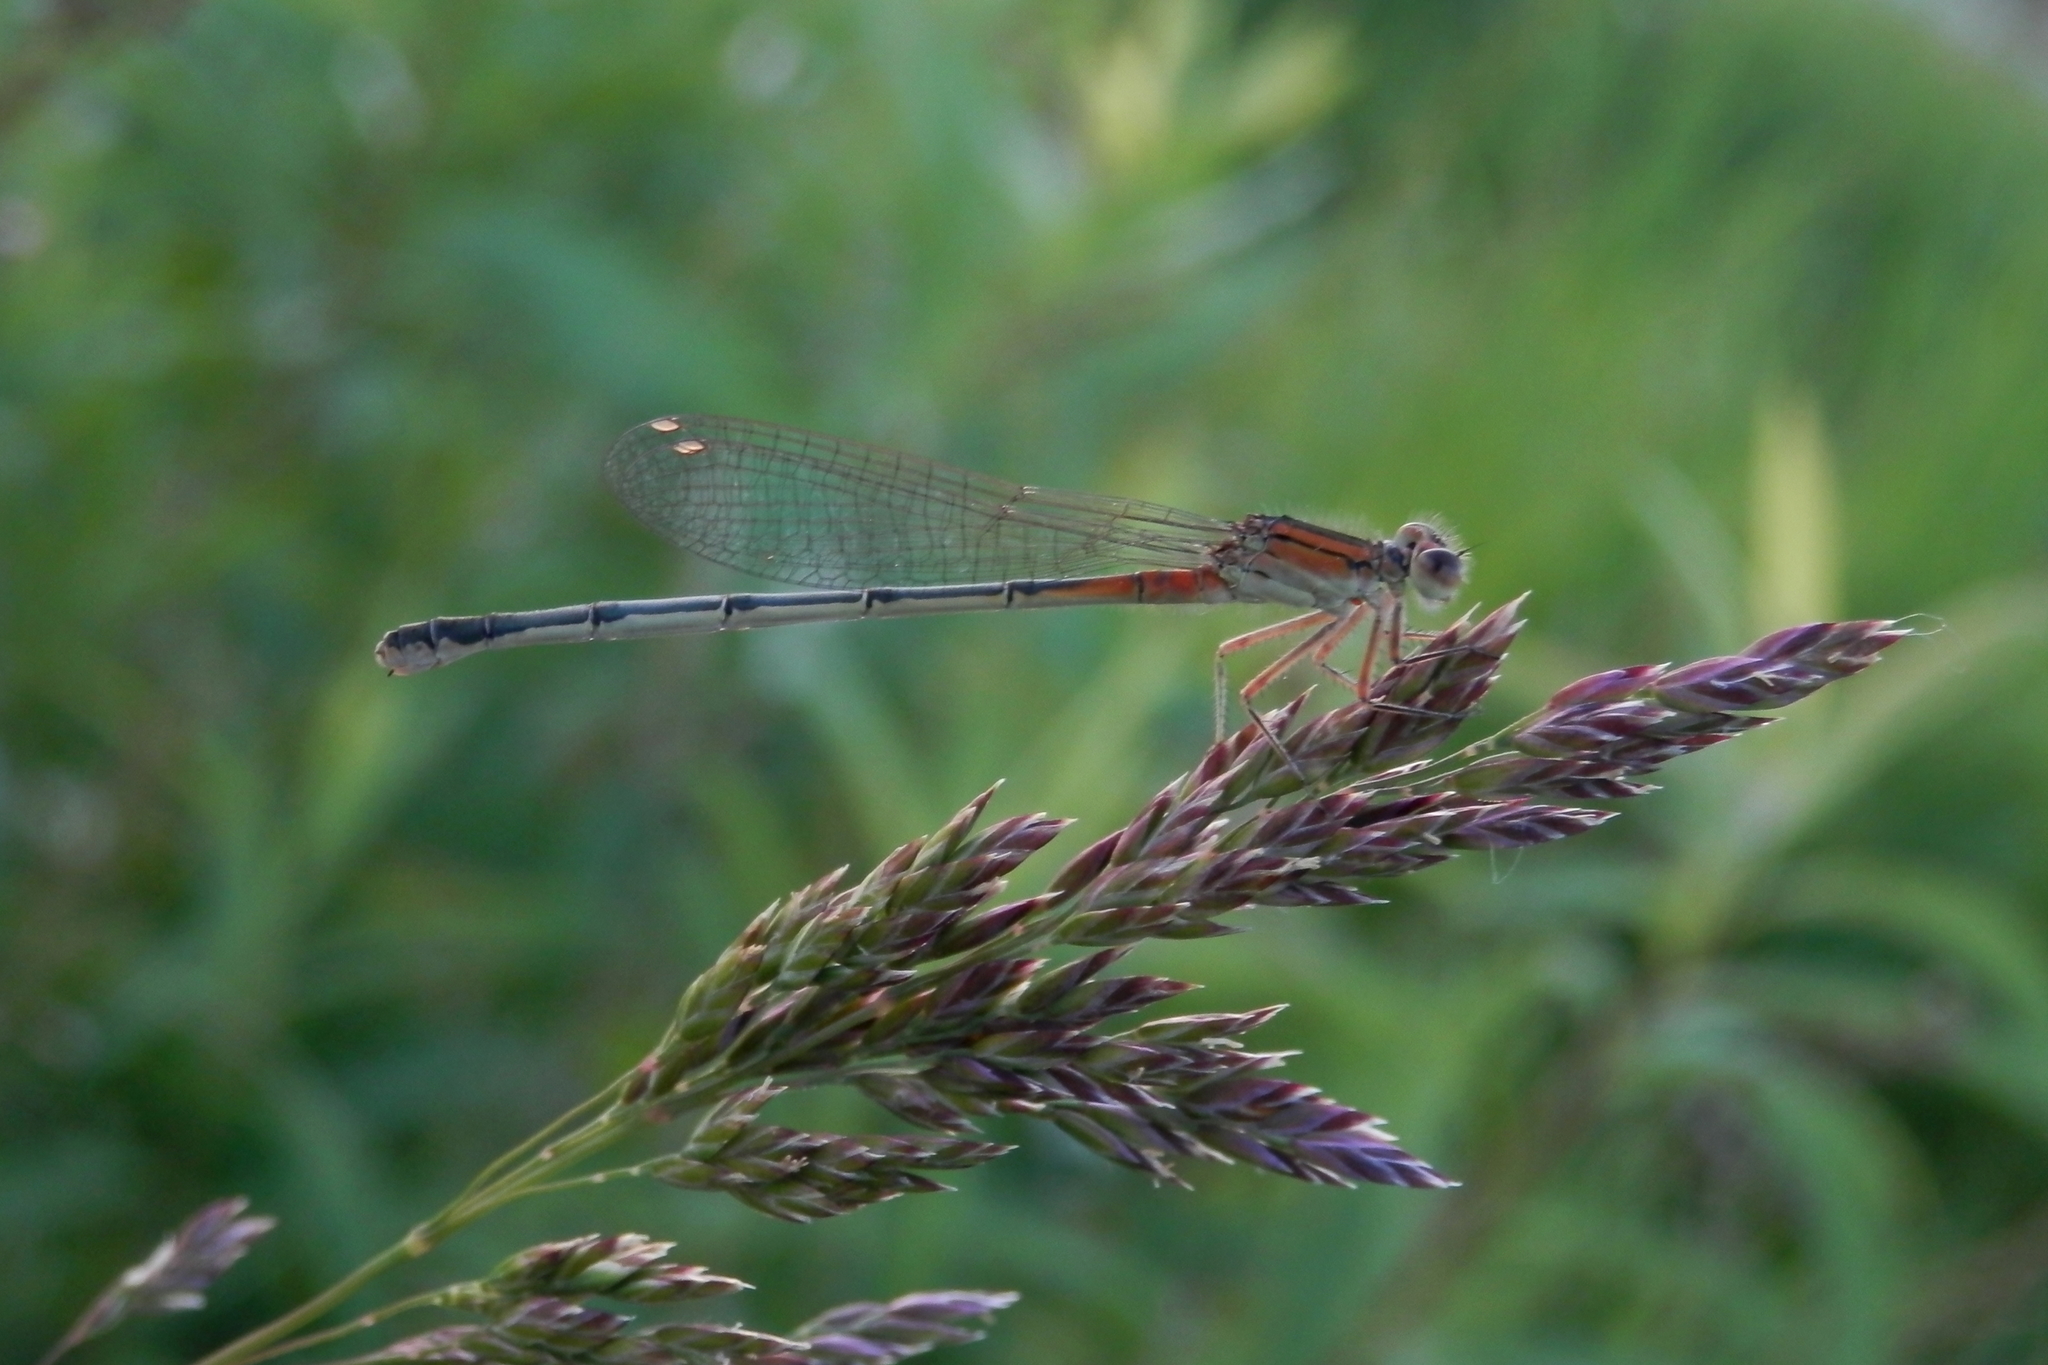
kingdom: Animalia
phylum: Arthropoda
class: Insecta
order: Odonata
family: Coenagrionidae
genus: Ischnura
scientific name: Ischnura verticalis
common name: Eastern forktail
